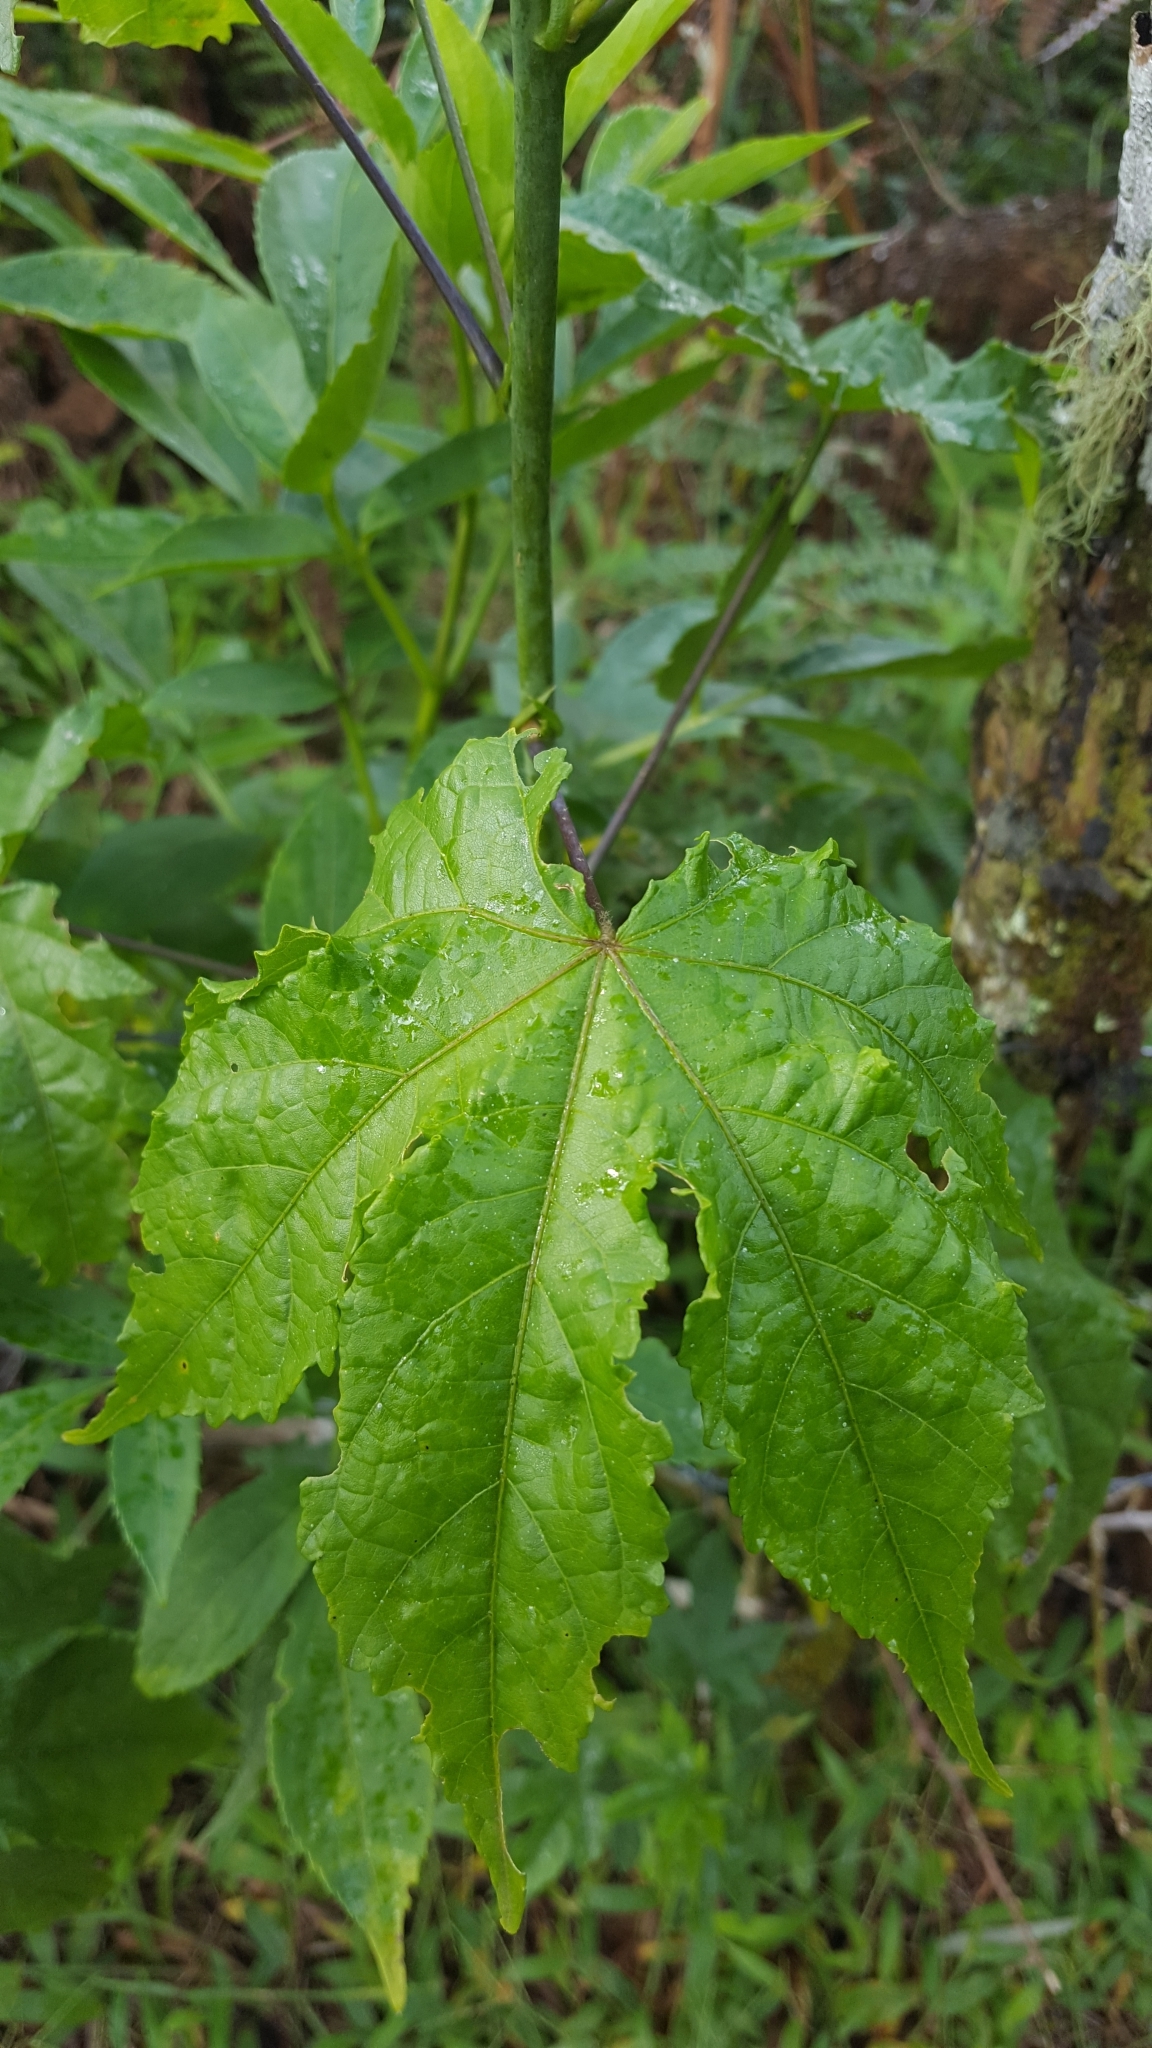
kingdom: Plantae
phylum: Tracheophyta
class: Magnoliopsida
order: Malvales
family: Malvaceae
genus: Callianthe
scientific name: Callianthe picta
